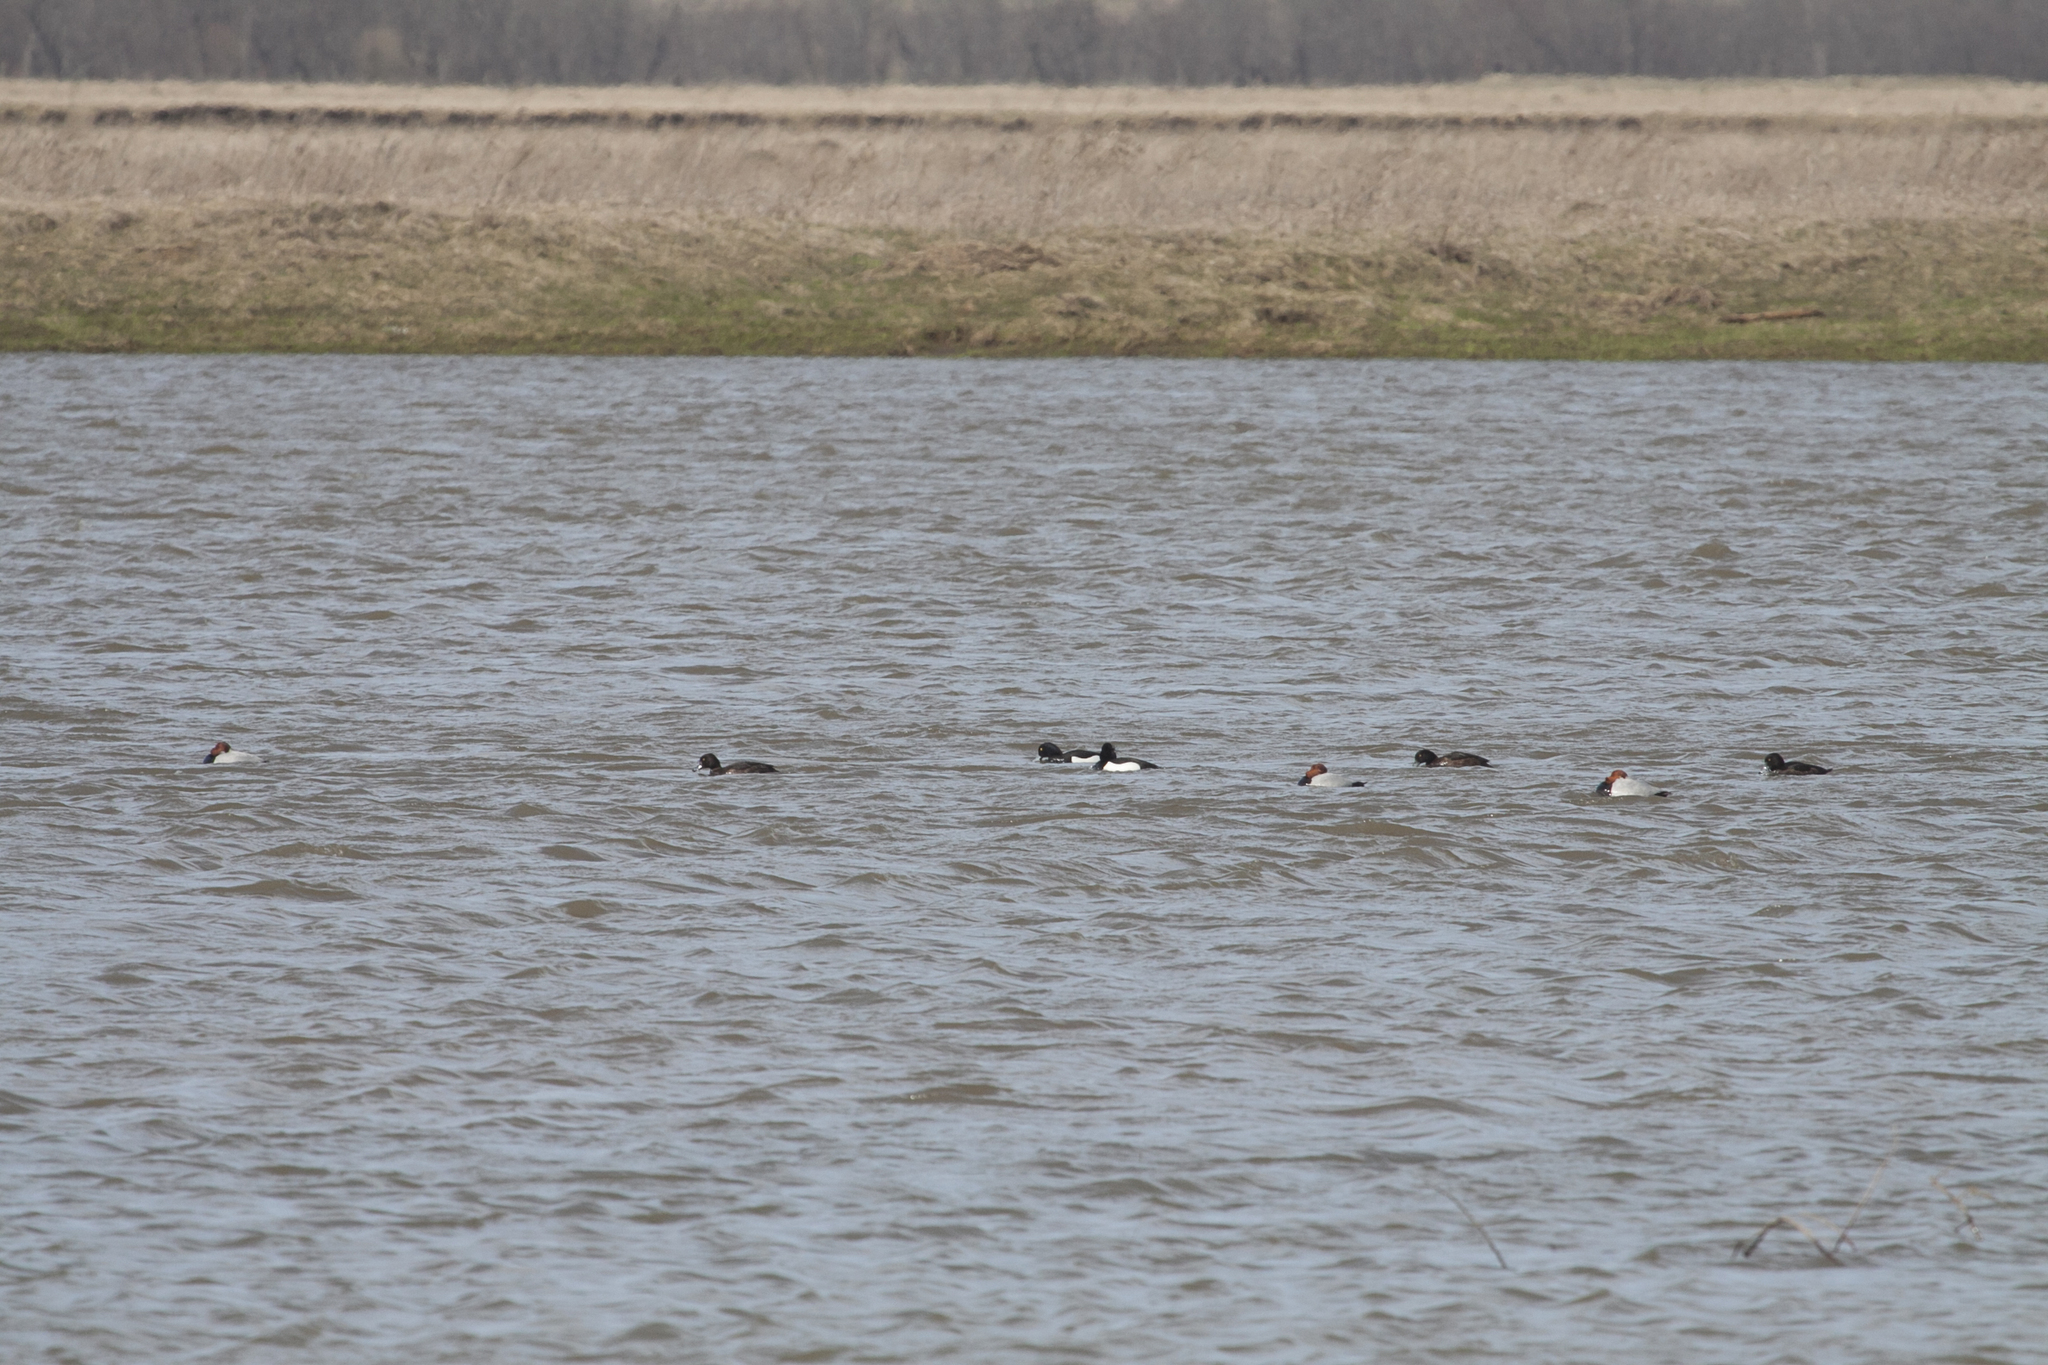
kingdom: Animalia
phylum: Chordata
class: Aves
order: Anseriformes
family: Anatidae
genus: Aythya
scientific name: Aythya ferina
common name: Common pochard
